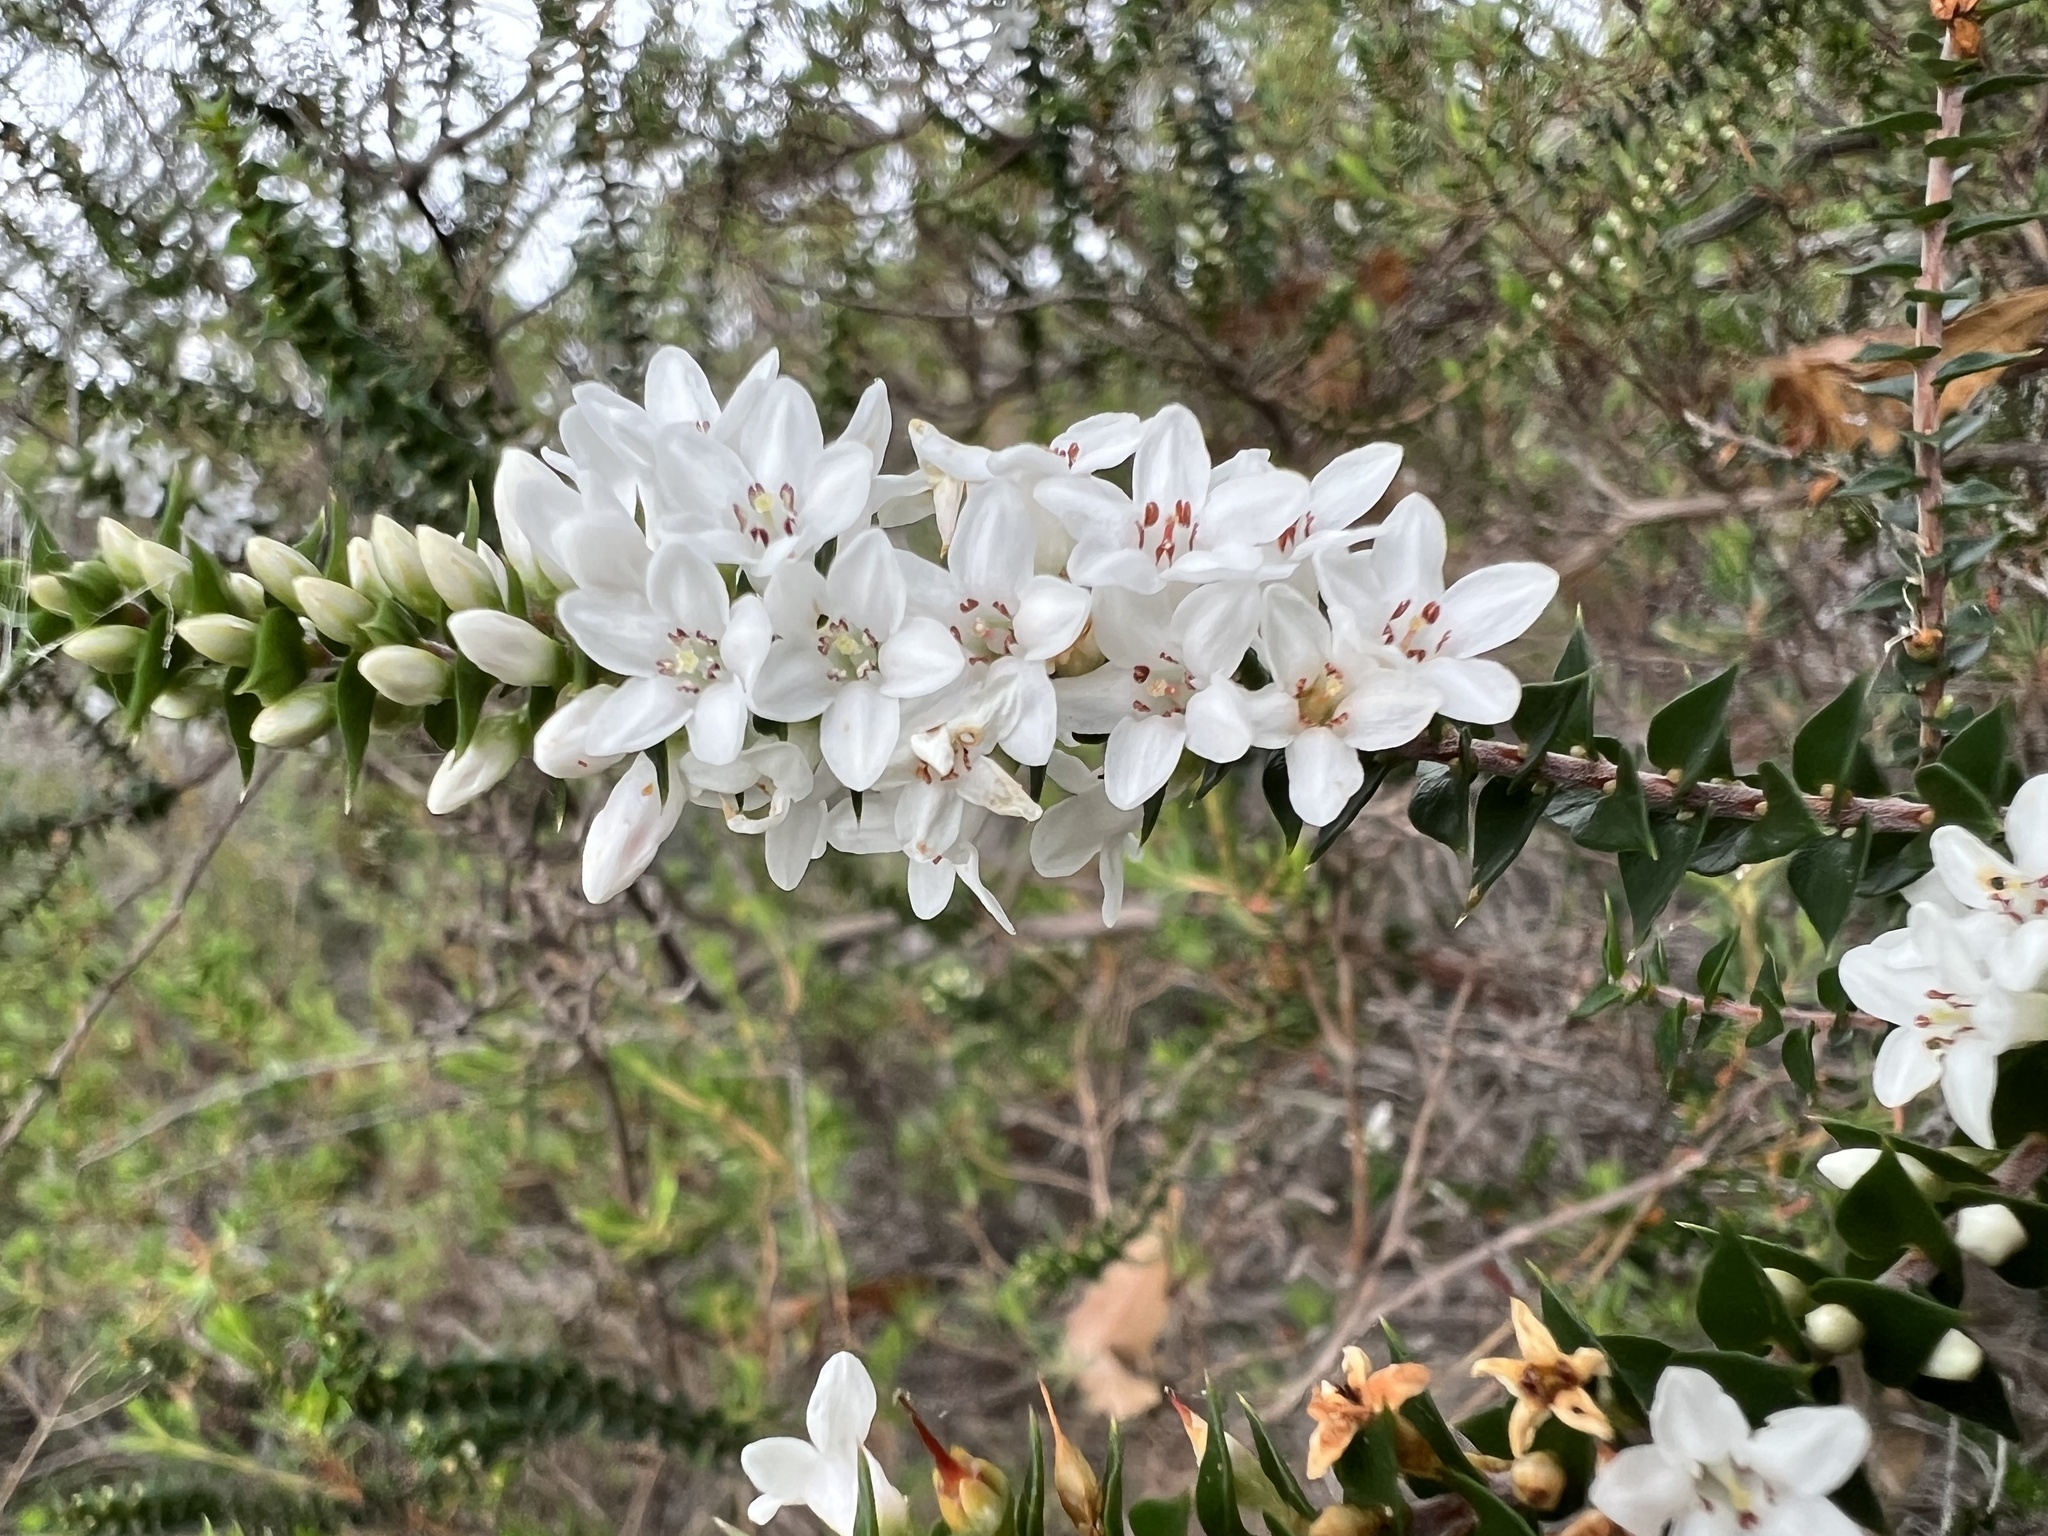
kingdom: Plantae
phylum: Tracheophyta
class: Magnoliopsida
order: Ericales
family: Ericaceae
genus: Epacris
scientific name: Epacris pulchella
